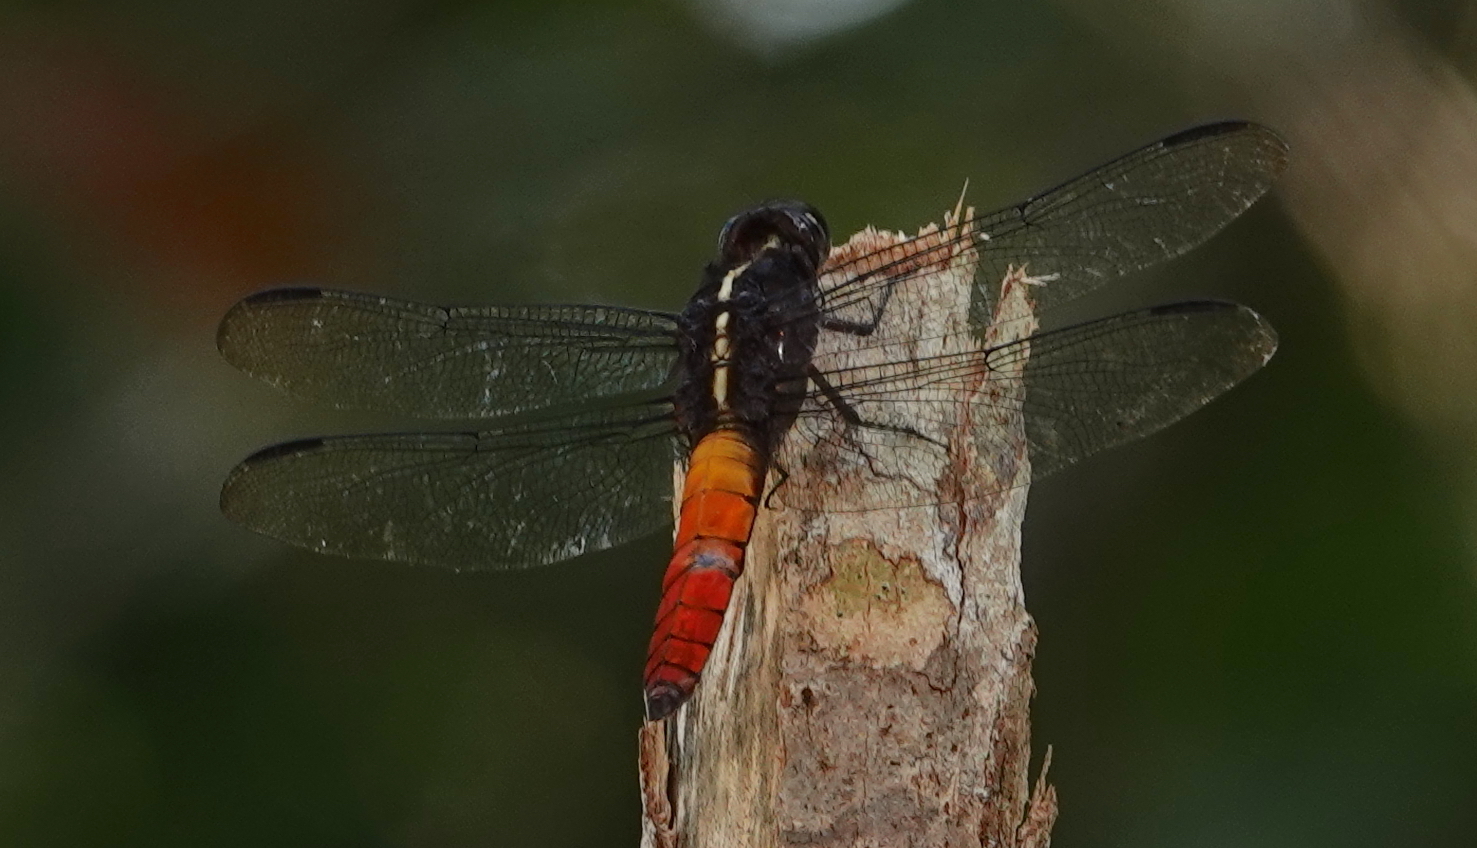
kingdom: Animalia
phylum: Arthropoda
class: Insecta
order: Odonata
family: Libellulidae
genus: Libellula
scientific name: Libellula herculea
